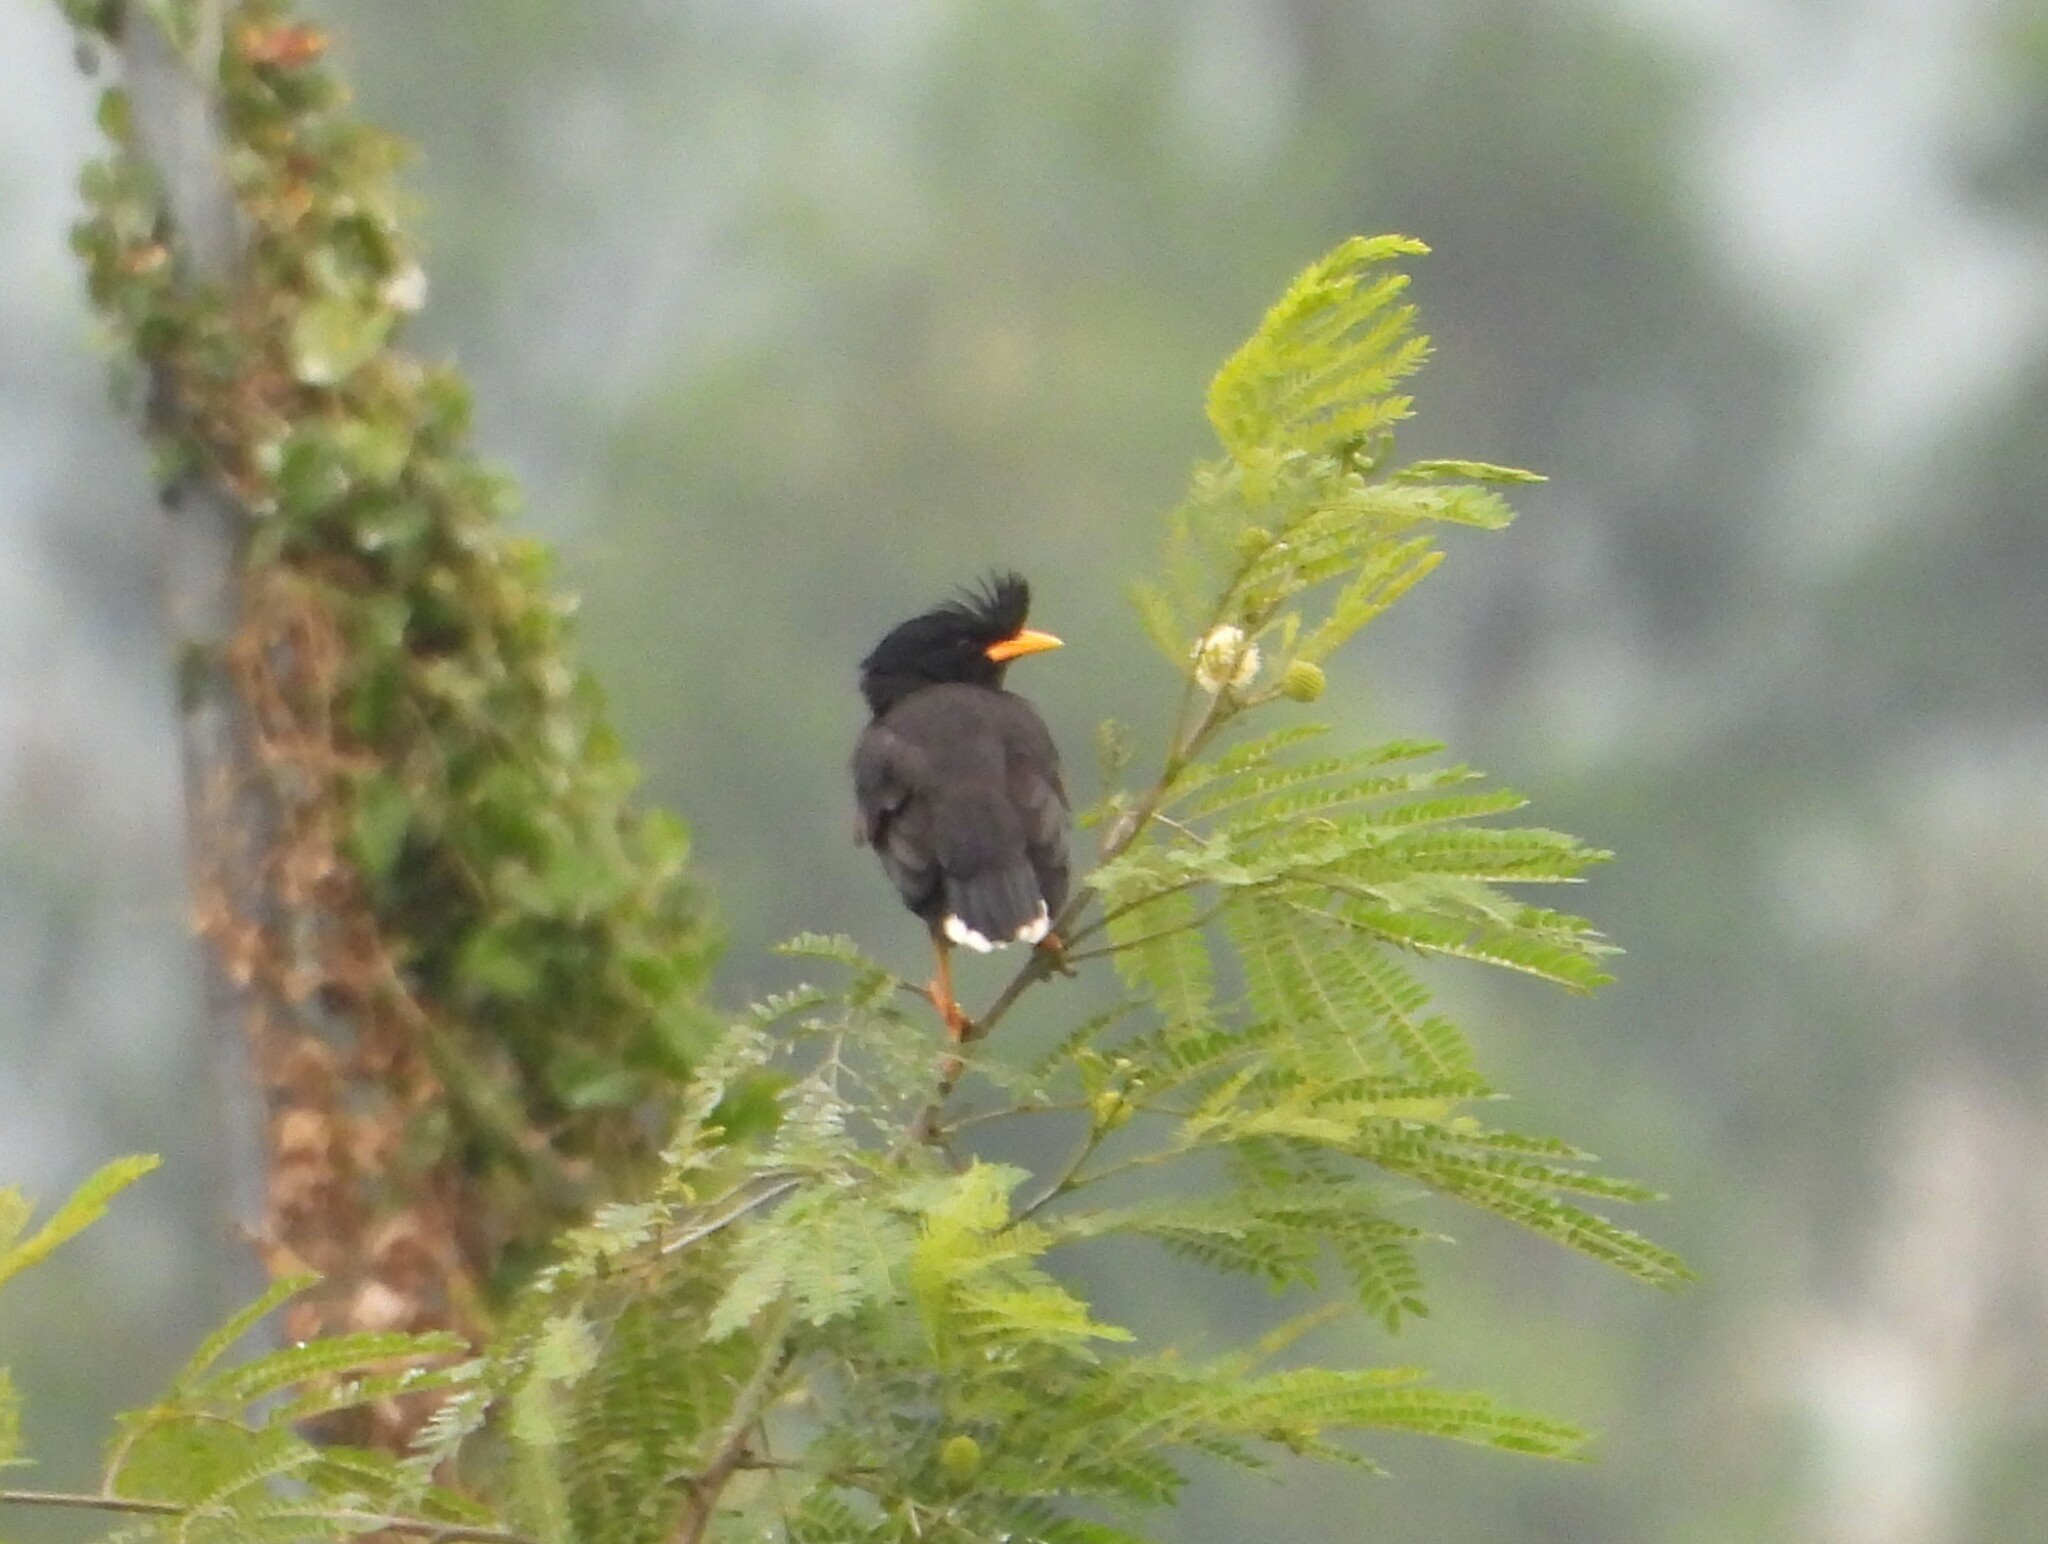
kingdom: Animalia
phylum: Chordata
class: Aves
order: Passeriformes
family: Sturnidae
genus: Acridotheres
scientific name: Acridotheres grandis
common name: Great myna
